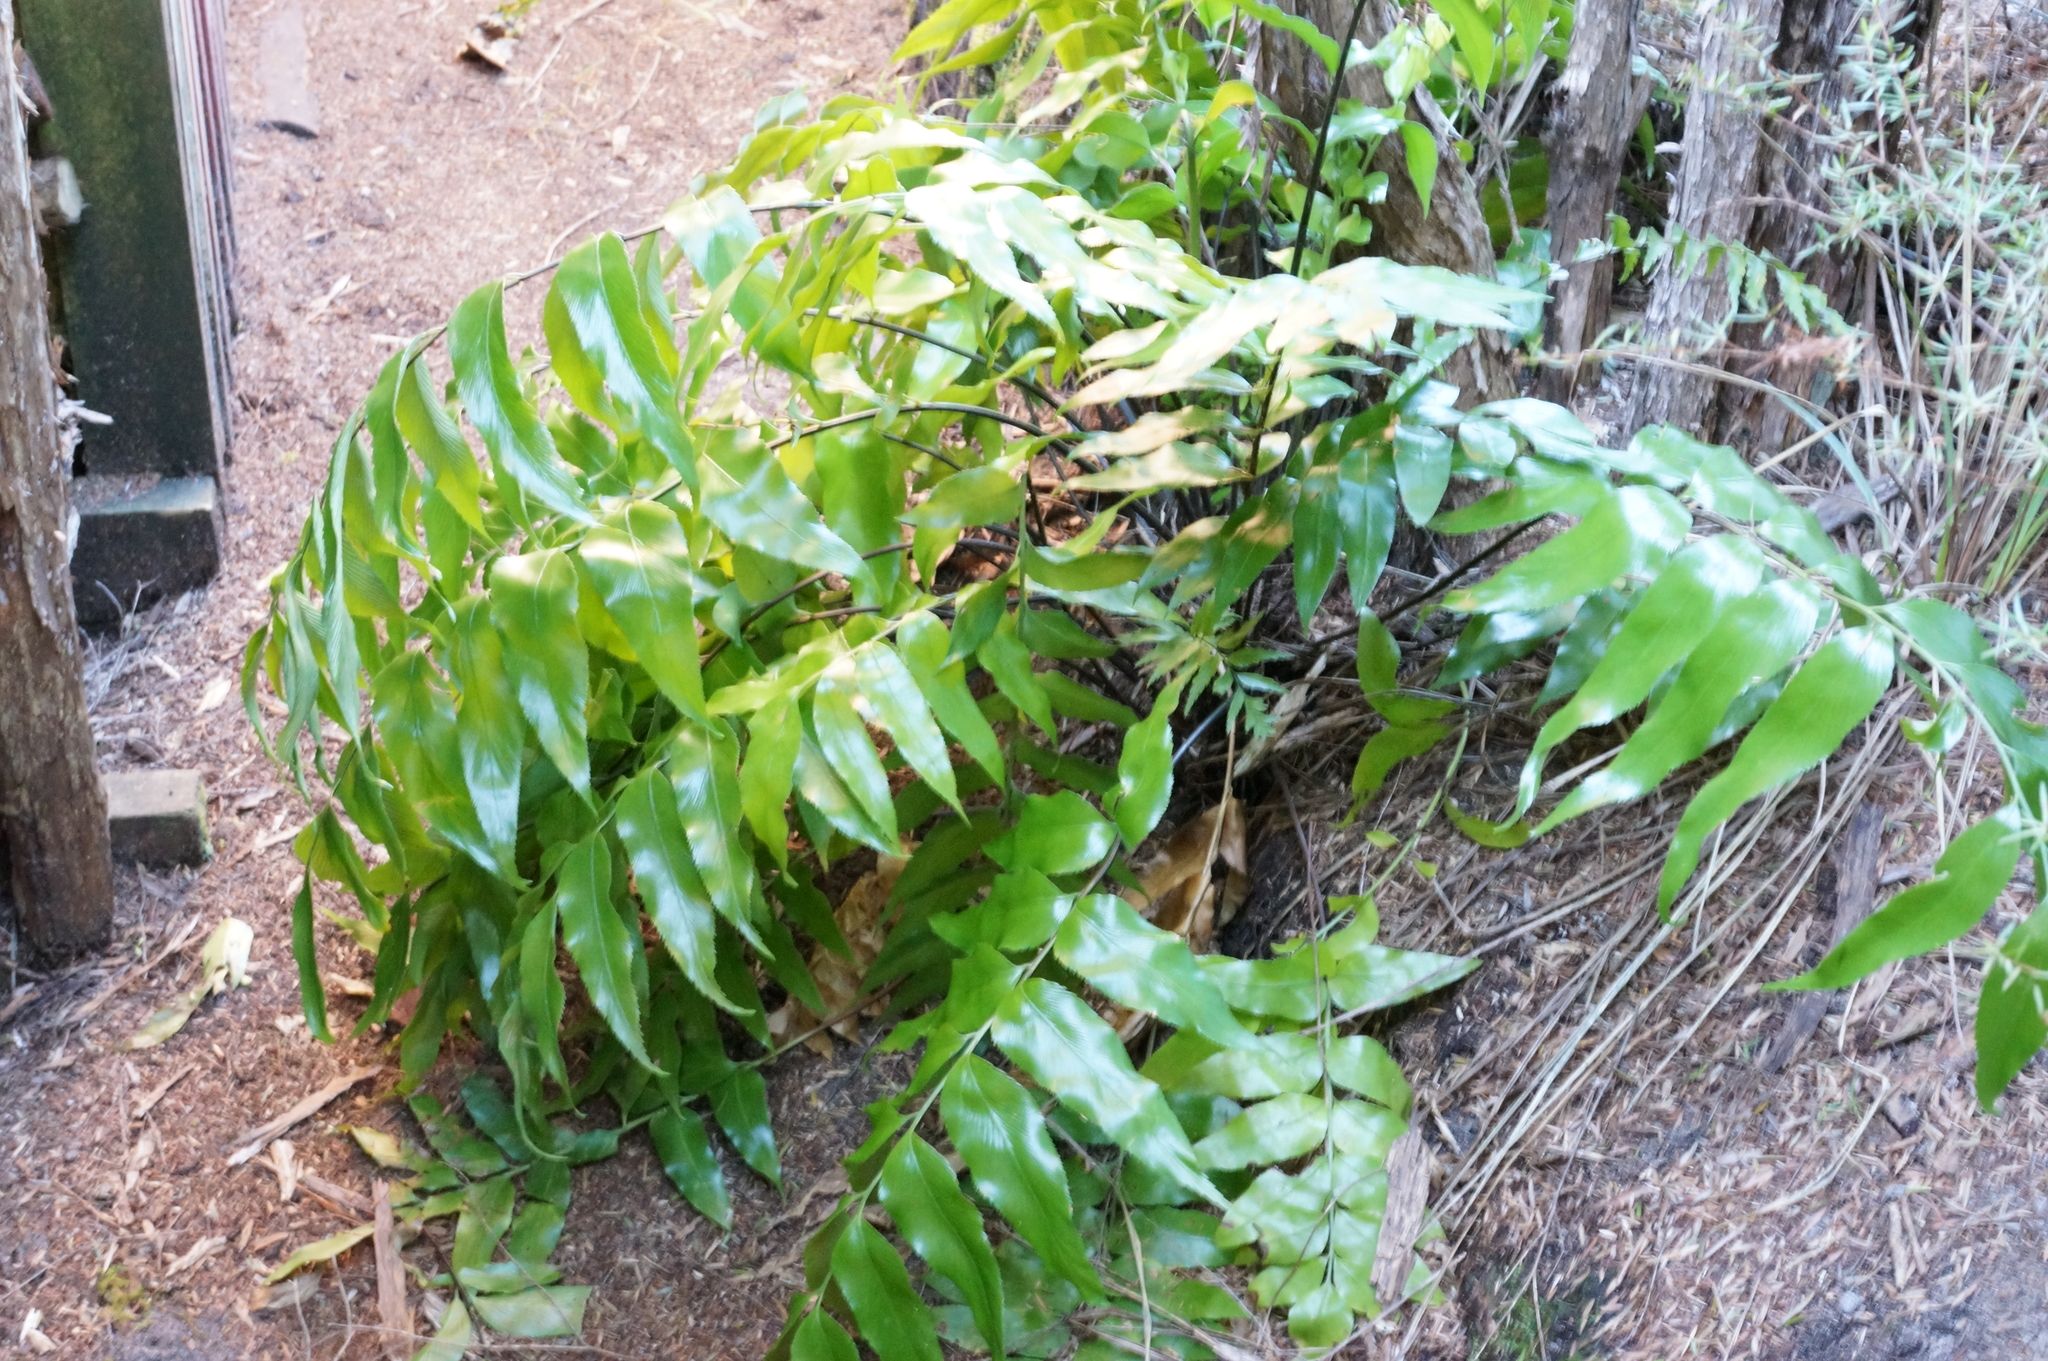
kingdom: Plantae
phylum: Tracheophyta
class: Polypodiopsida
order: Polypodiales
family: Aspleniaceae
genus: Asplenium
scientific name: Asplenium oblongifolium
